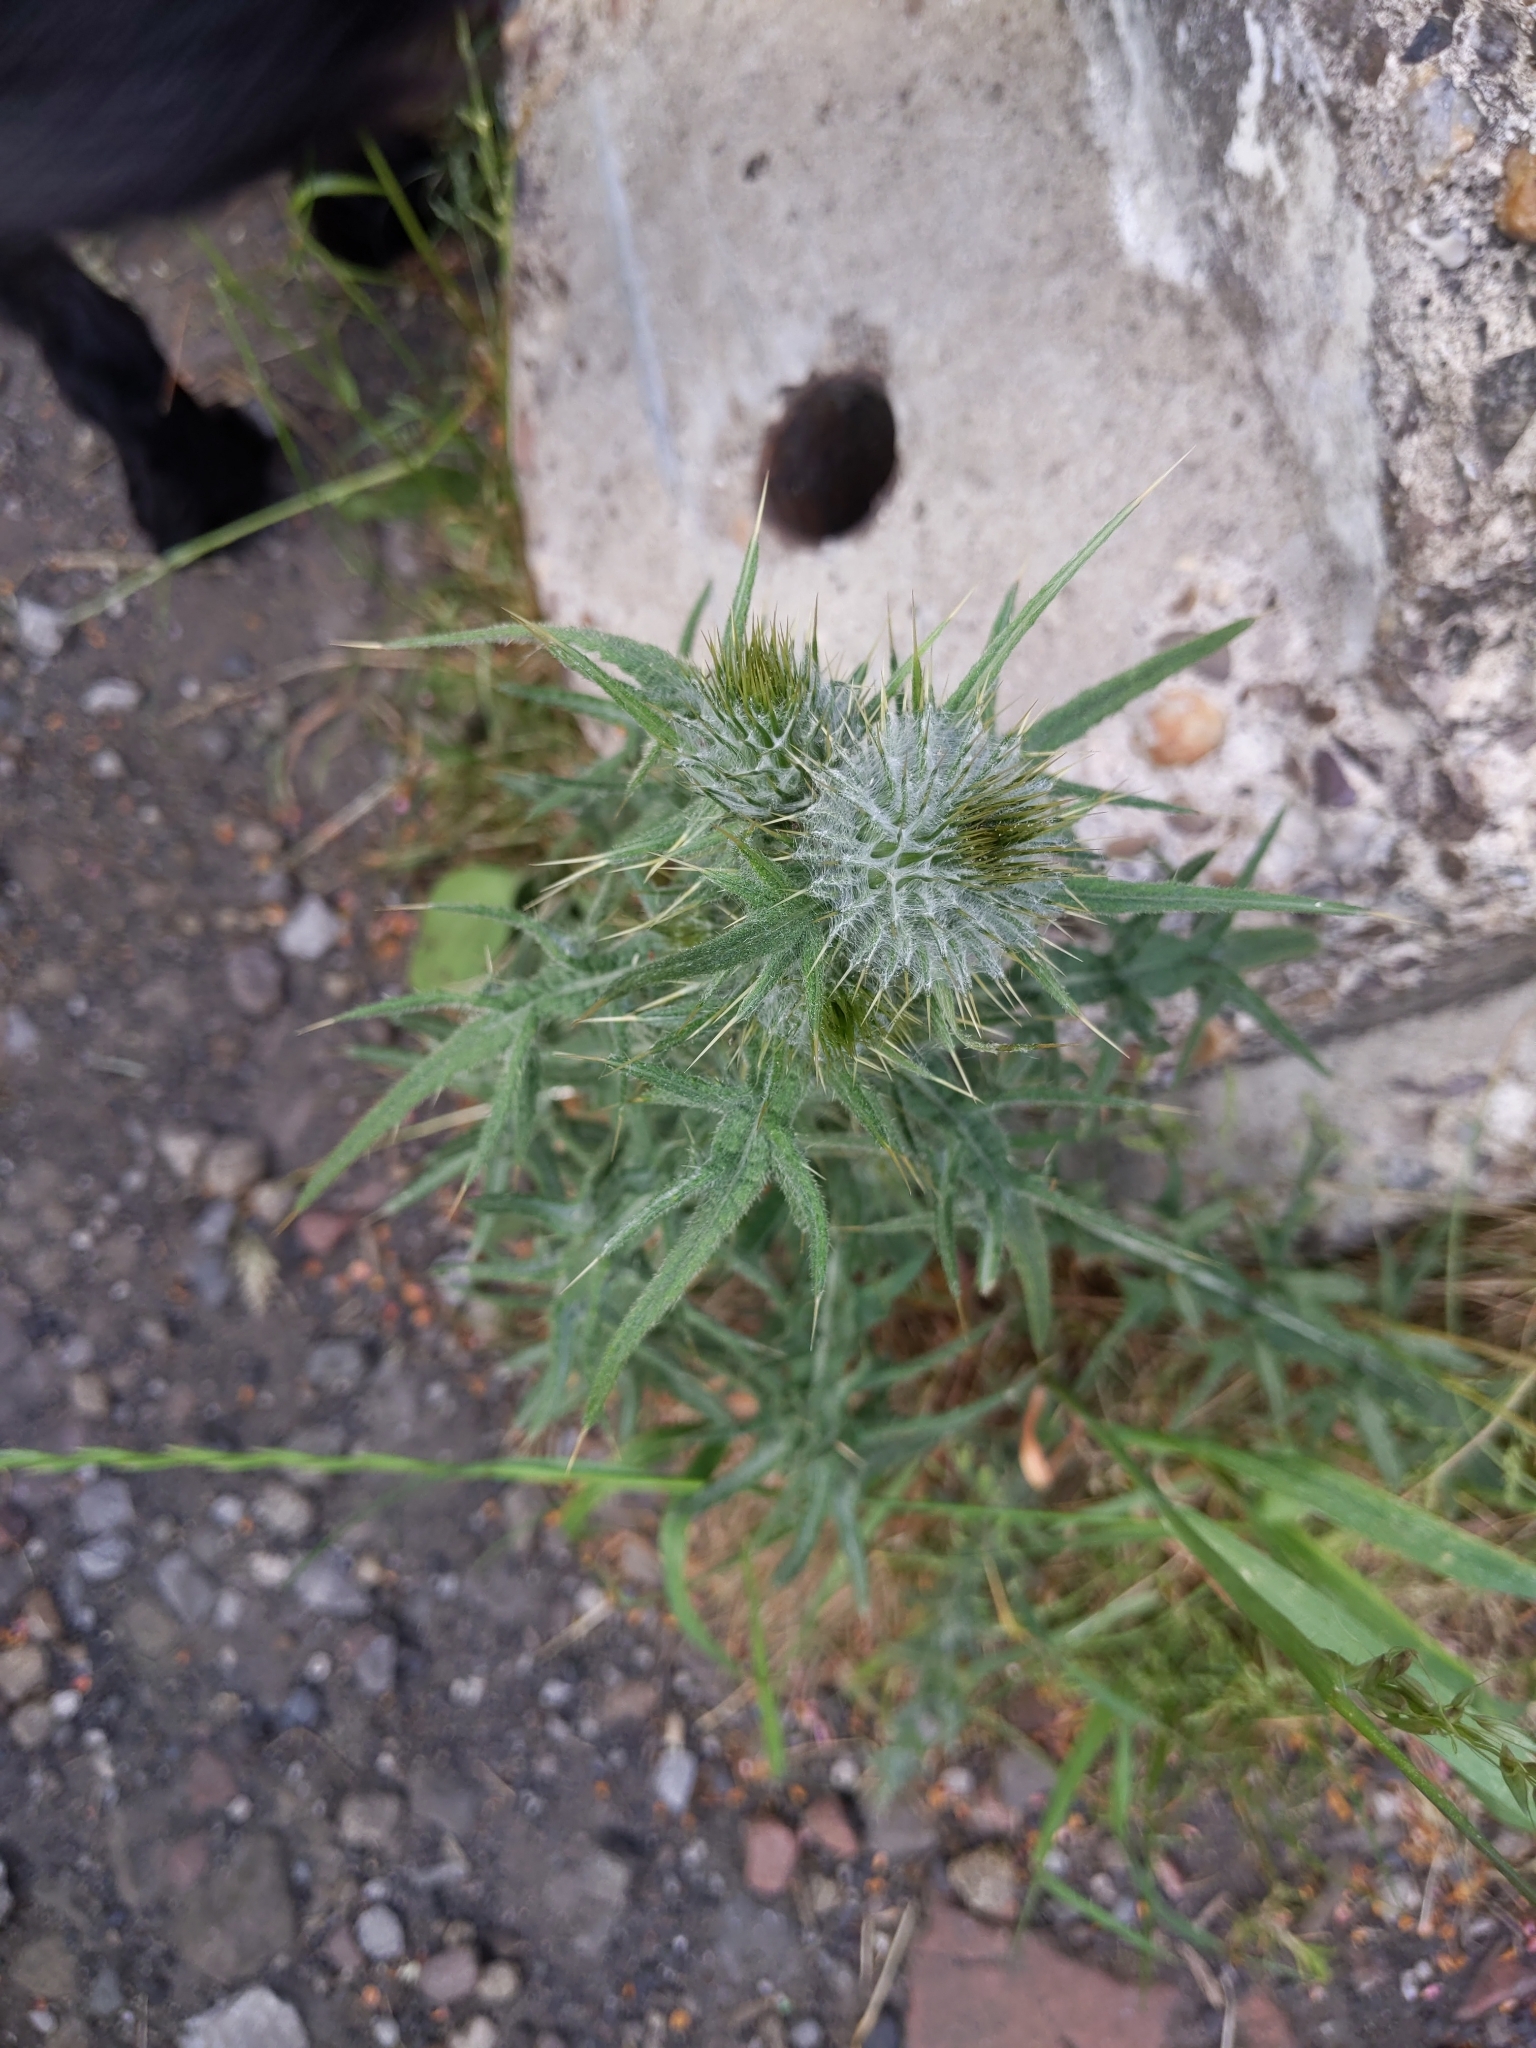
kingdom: Plantae
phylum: Tracheophyta
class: Magnoliopsida
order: Asterales
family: Asteraceae
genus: Cirsium
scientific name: Cirsium vulgare
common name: Bull thistle
